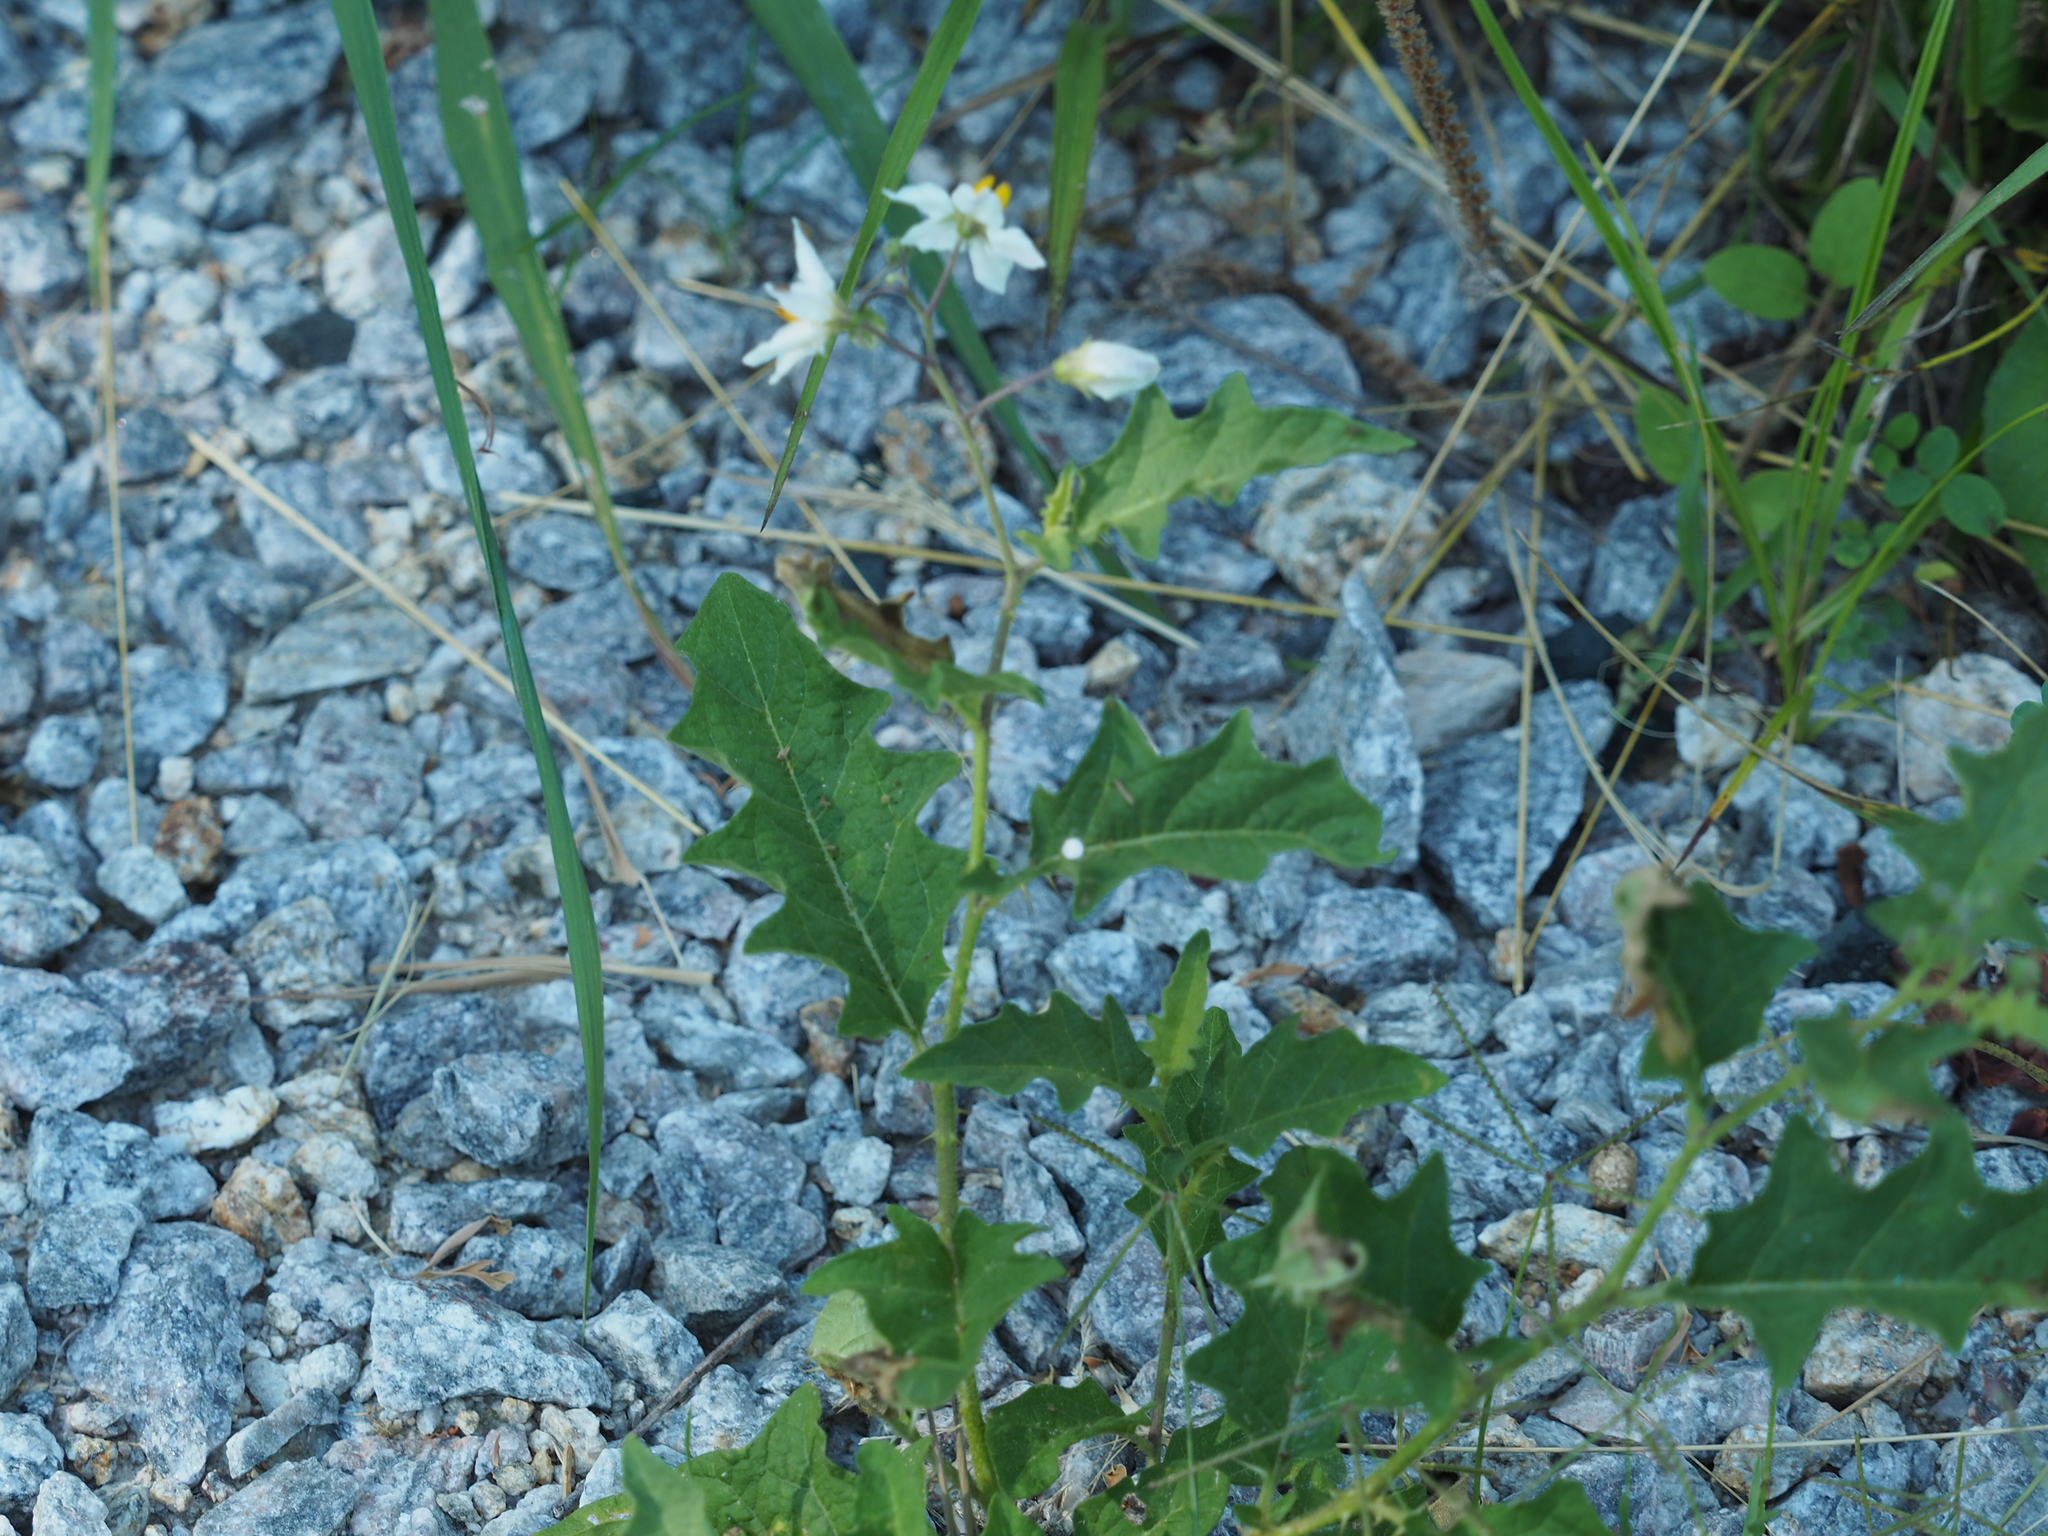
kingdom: Plantae
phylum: Tracheophyta
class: Magnoliopsida
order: Solanales
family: Solanaceae
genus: Solanum
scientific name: Solanum carolinense
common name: Horse-nettle
